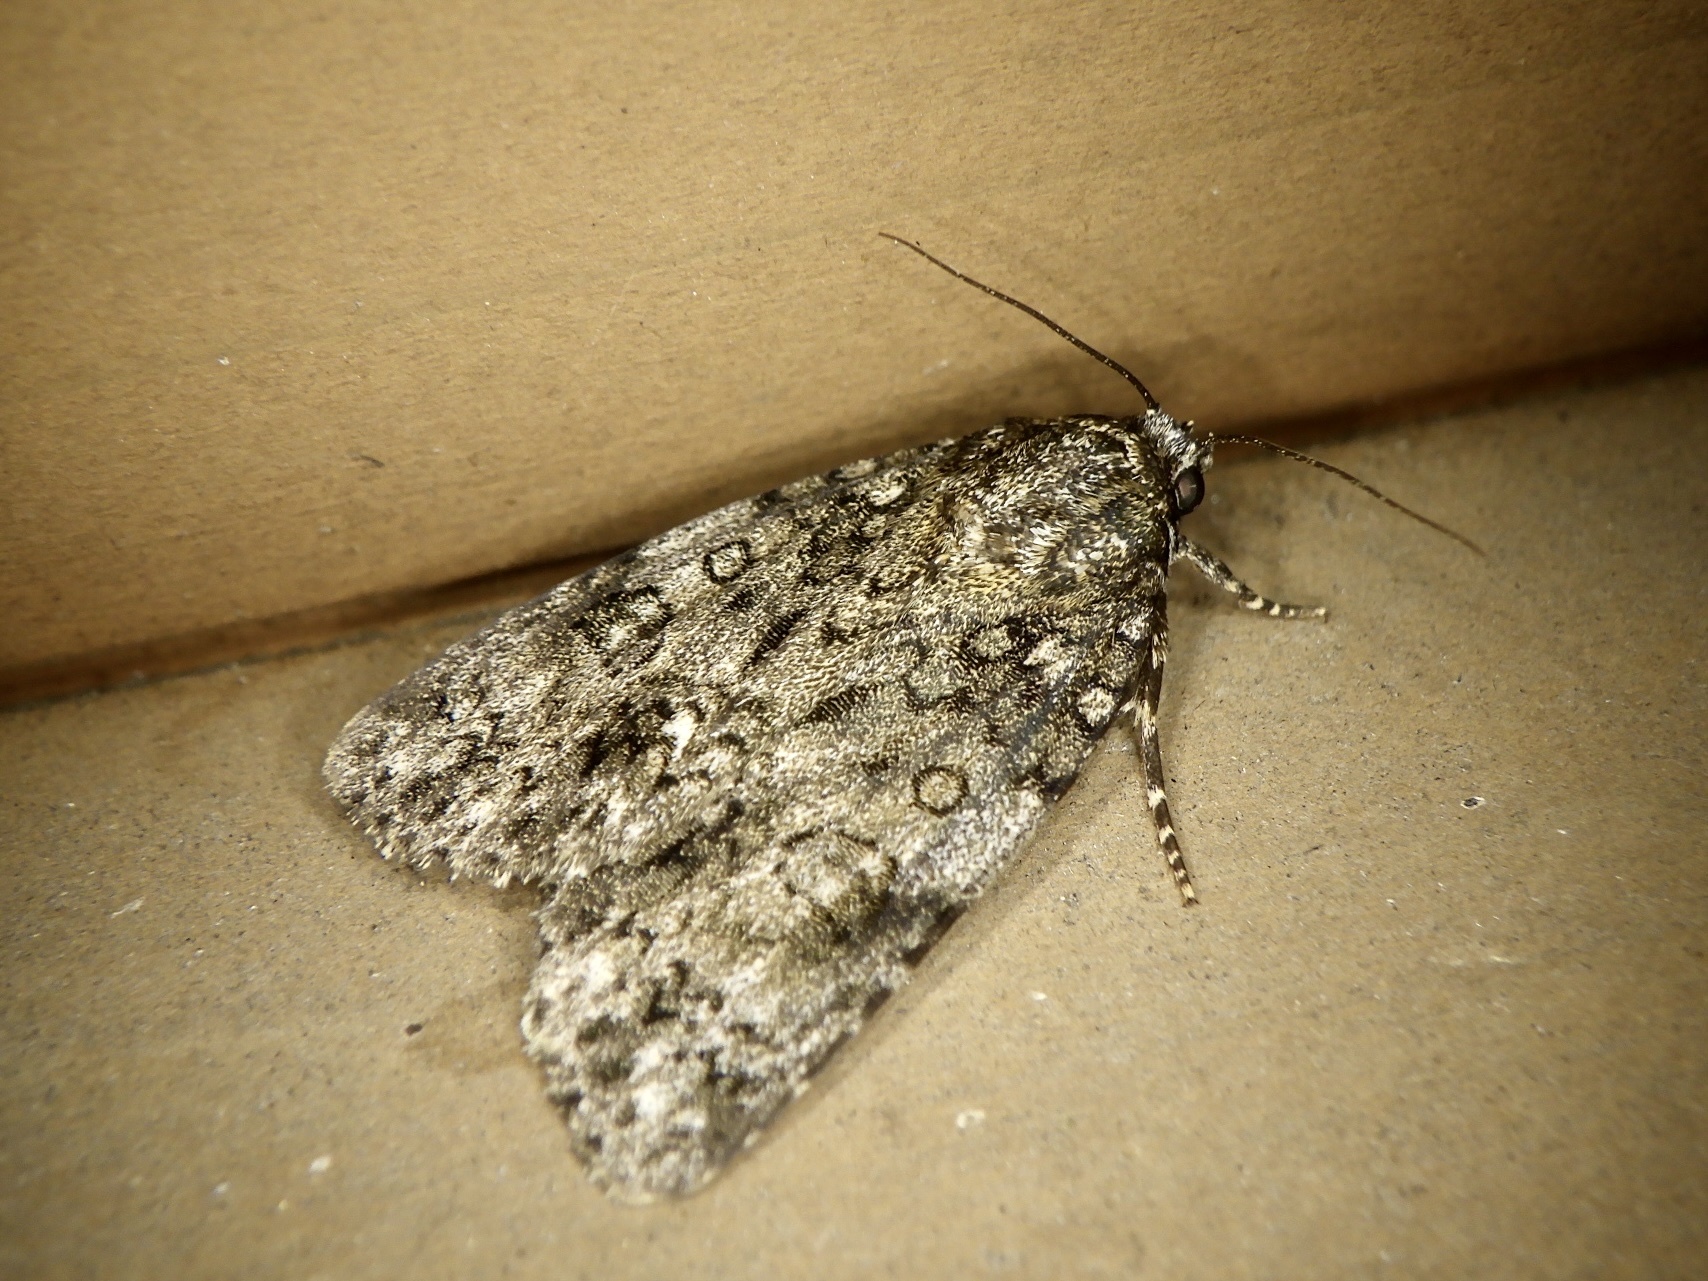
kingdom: Animalia
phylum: Arthropoda
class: Insecta
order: Lepidoptera
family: Noctuidae
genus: Acronicta
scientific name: Acronicta rumicis
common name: Knot grass
